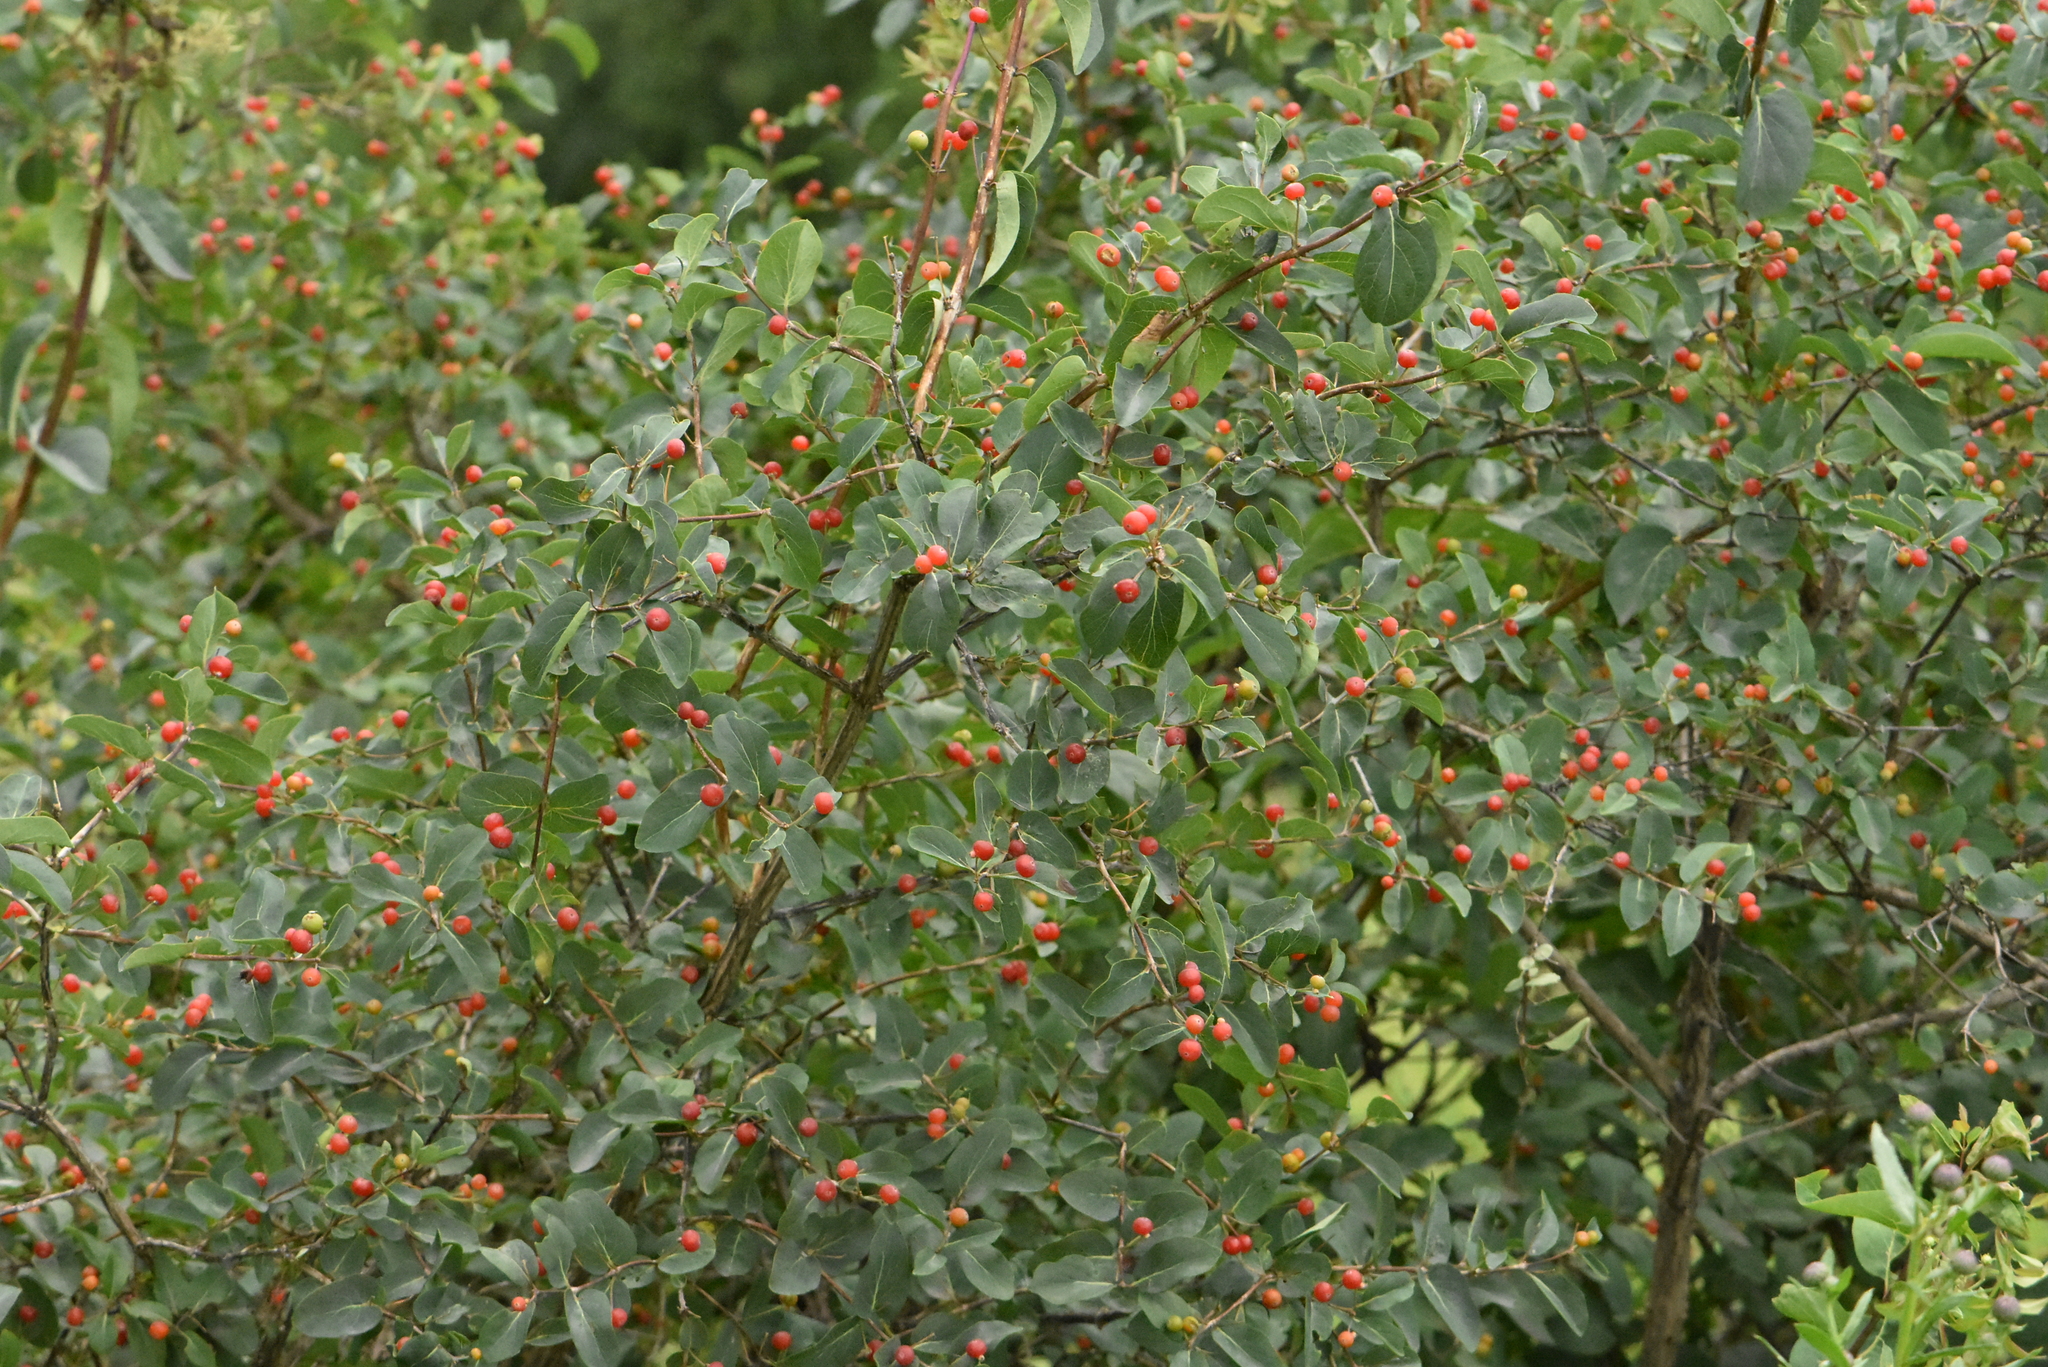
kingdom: Plantae
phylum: Tracheophyta
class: Magnoliopsida
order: Dipsacales
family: Caprifoliaceae
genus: Lonicera
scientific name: Lonicera tatarica
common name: Tatarian honeysuckle
